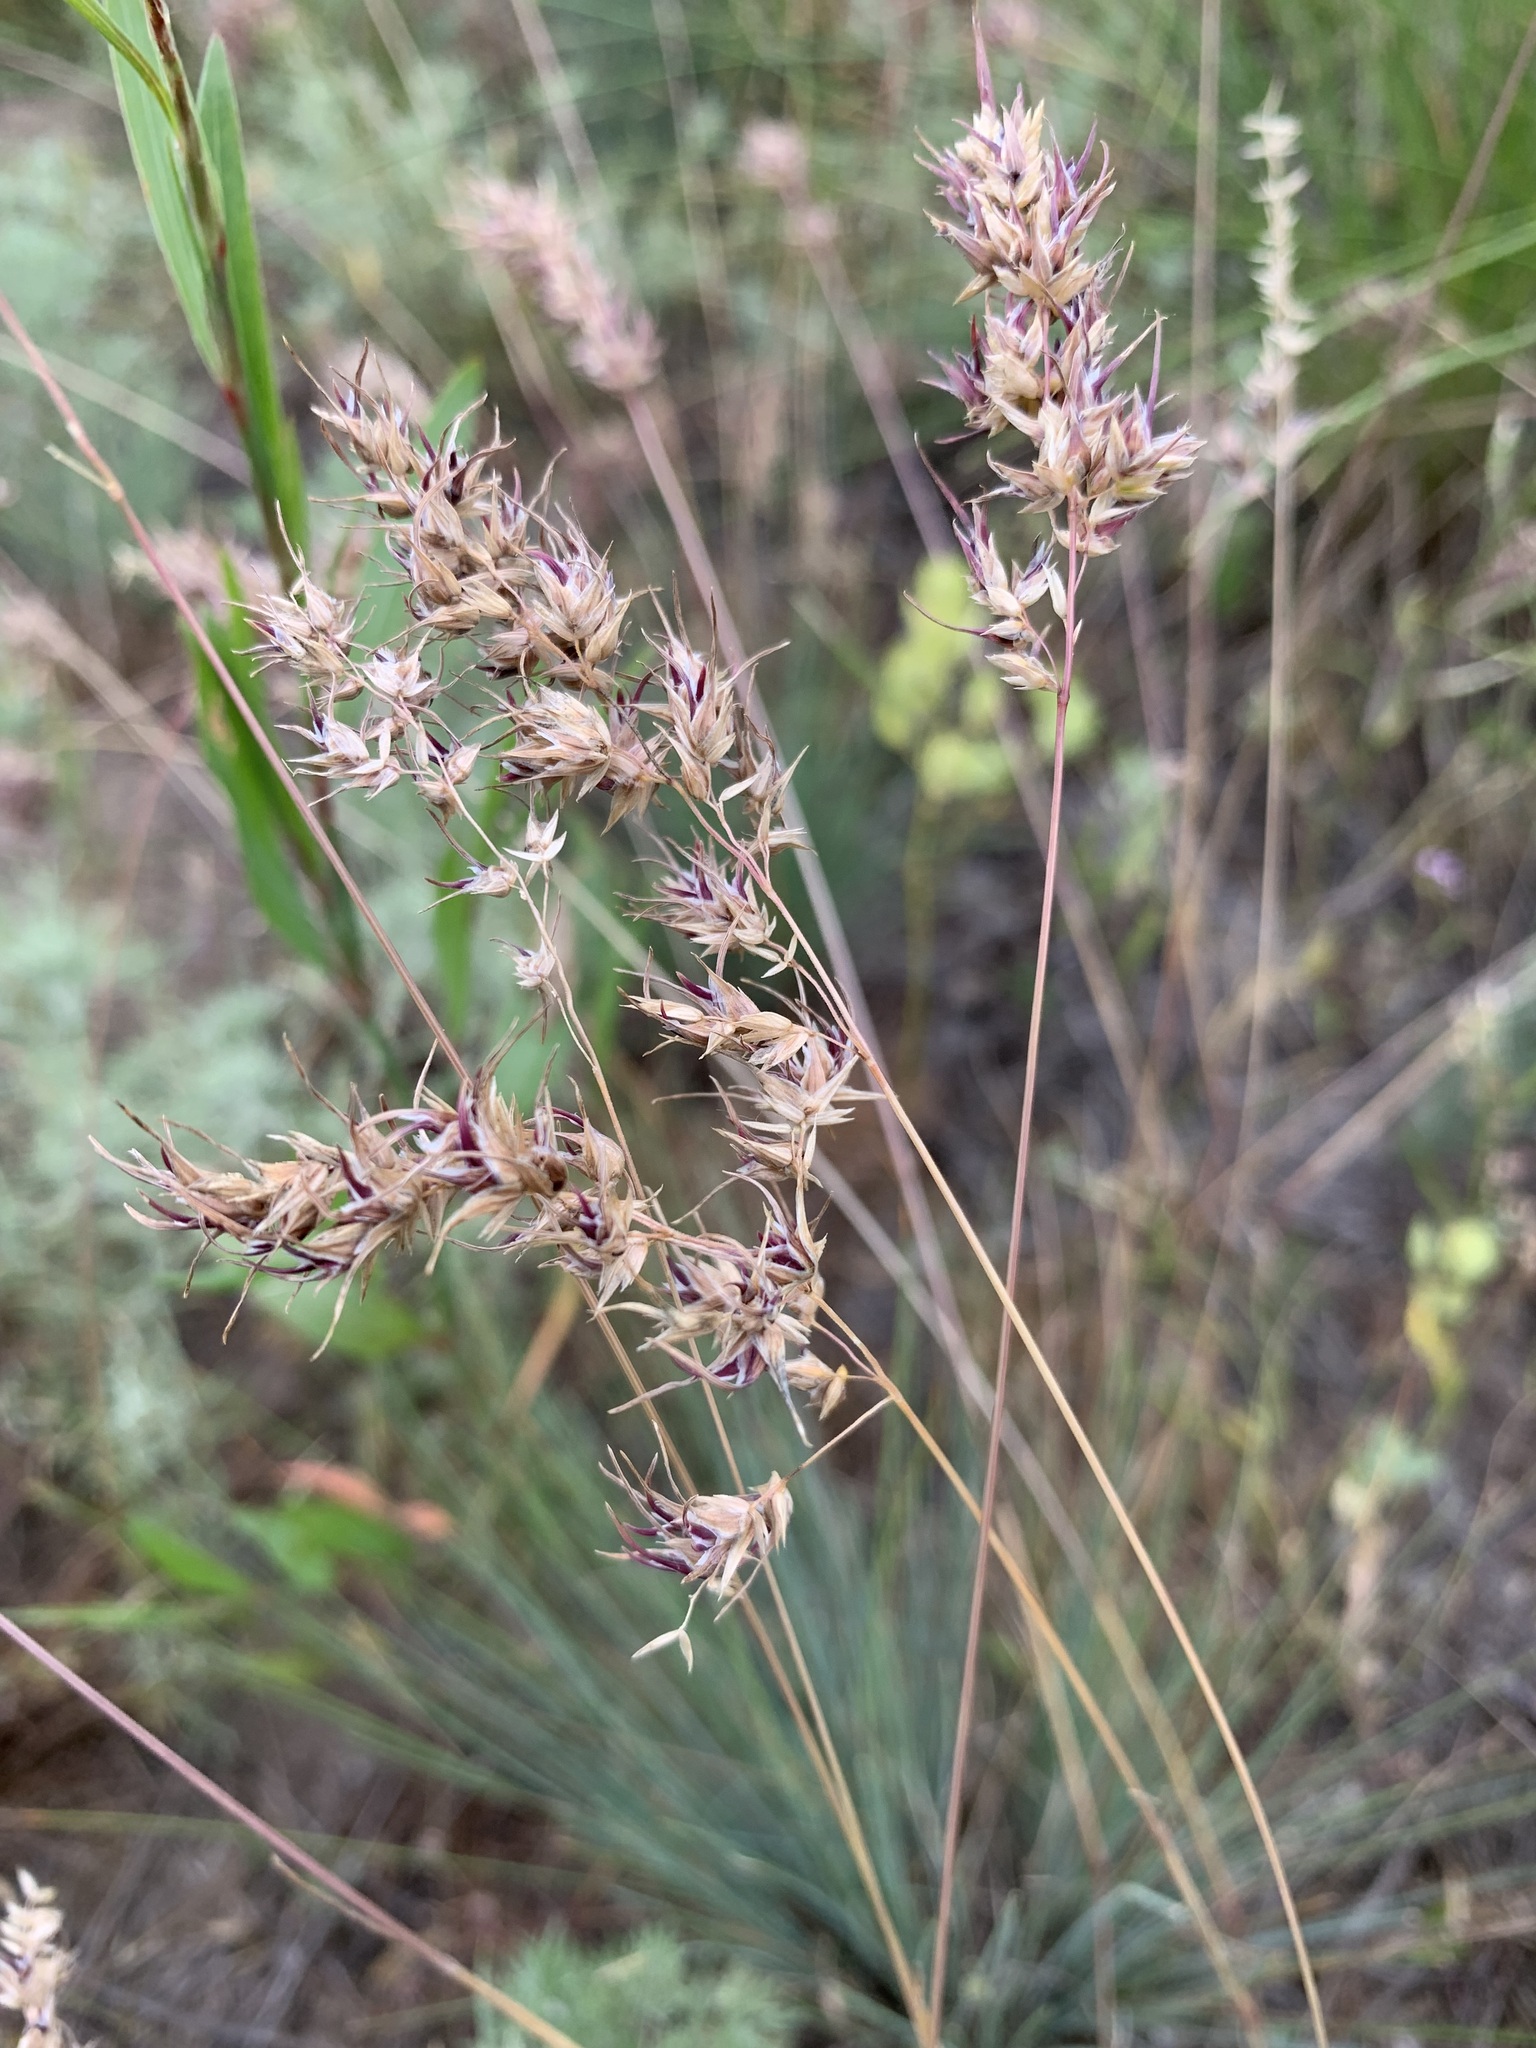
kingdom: Plantae
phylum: Tracheophyta
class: Liliopsida
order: Poales
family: Poaceae
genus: Poa
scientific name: Poa bulbosa
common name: Bulbous bluegrass
